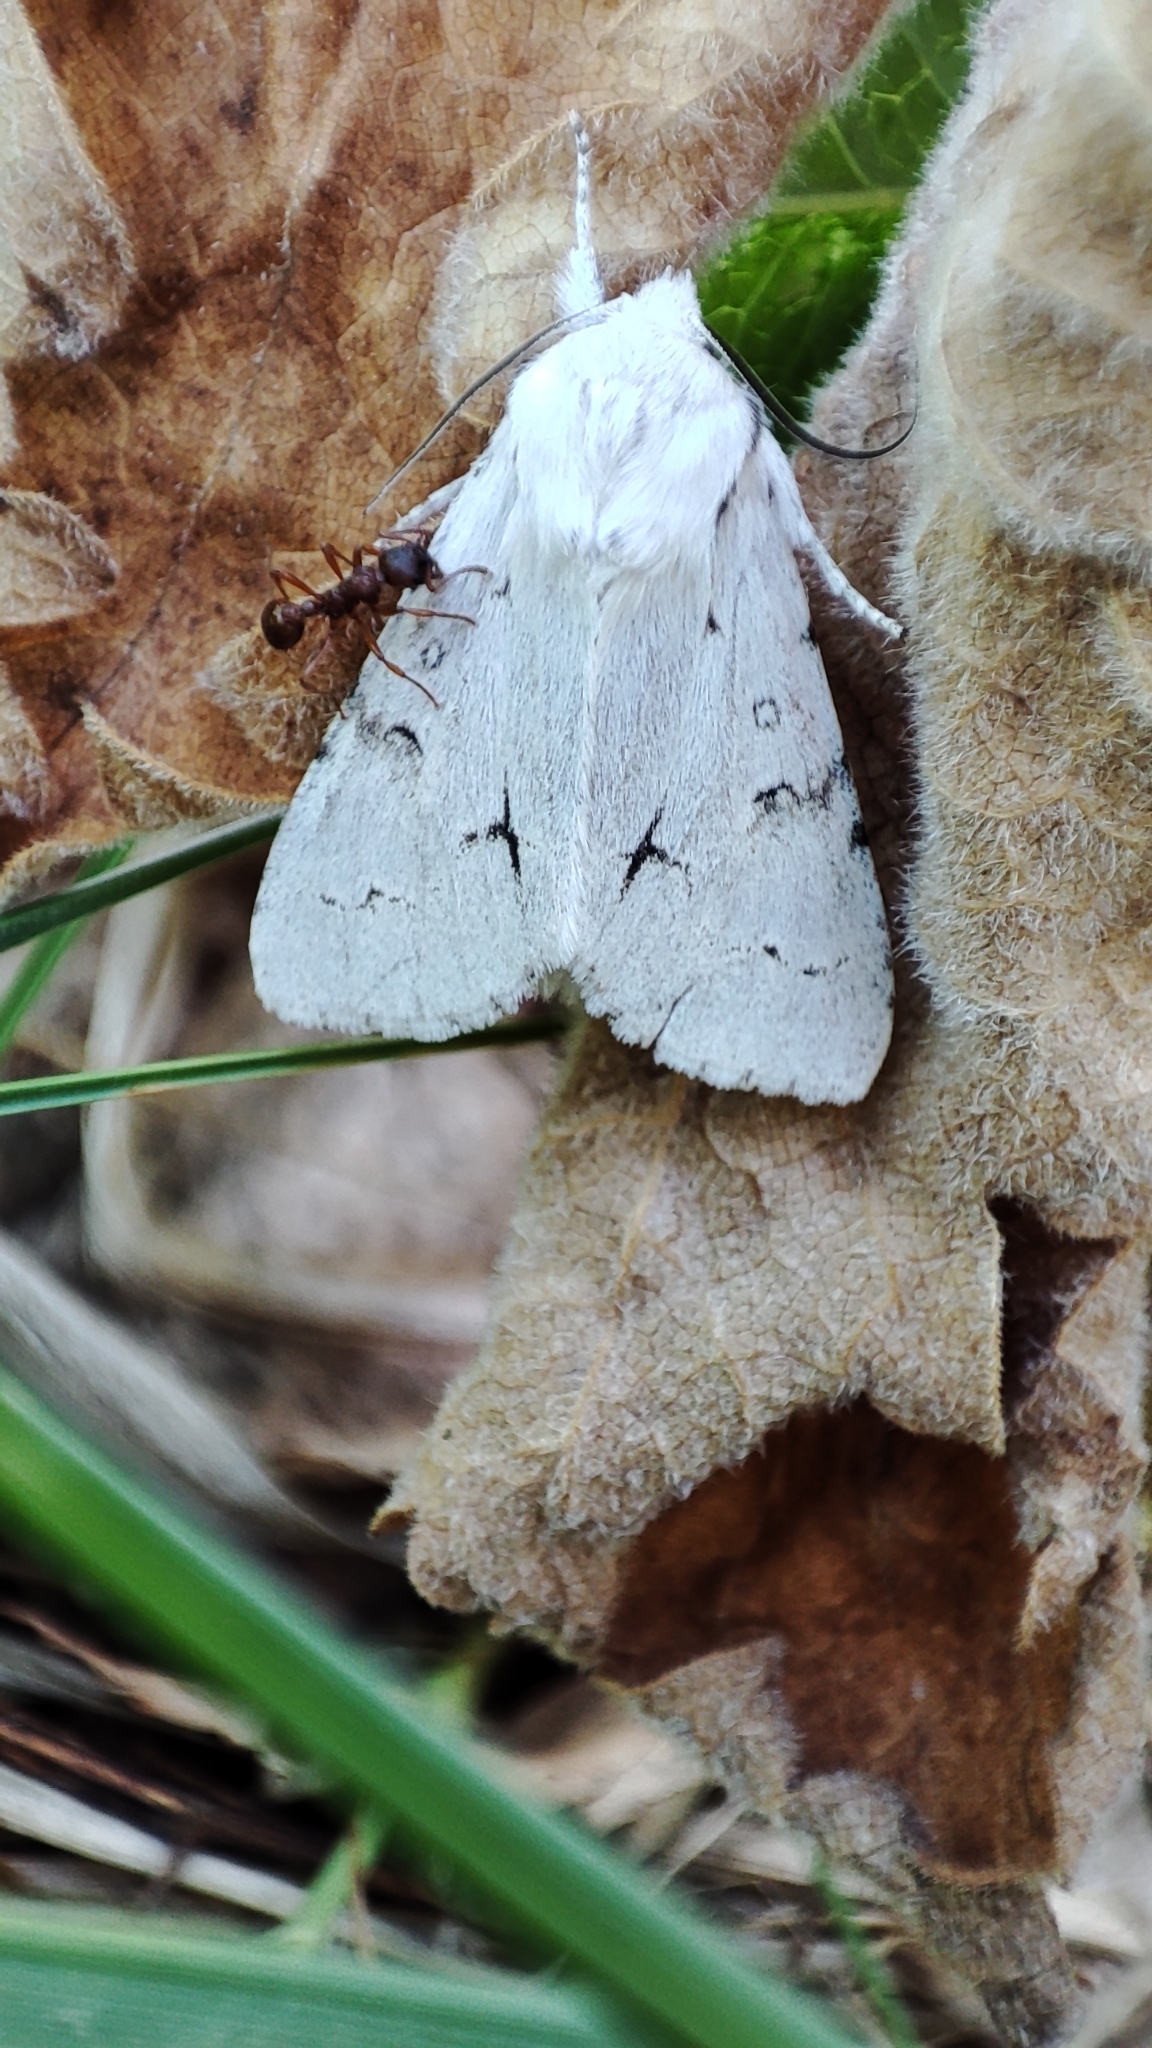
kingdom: Animalia
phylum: Arthropoda
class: Insecta
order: Lepidoptera
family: Noctuidae
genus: Acronicta
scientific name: Acronicta vulpina
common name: Miller dagger
